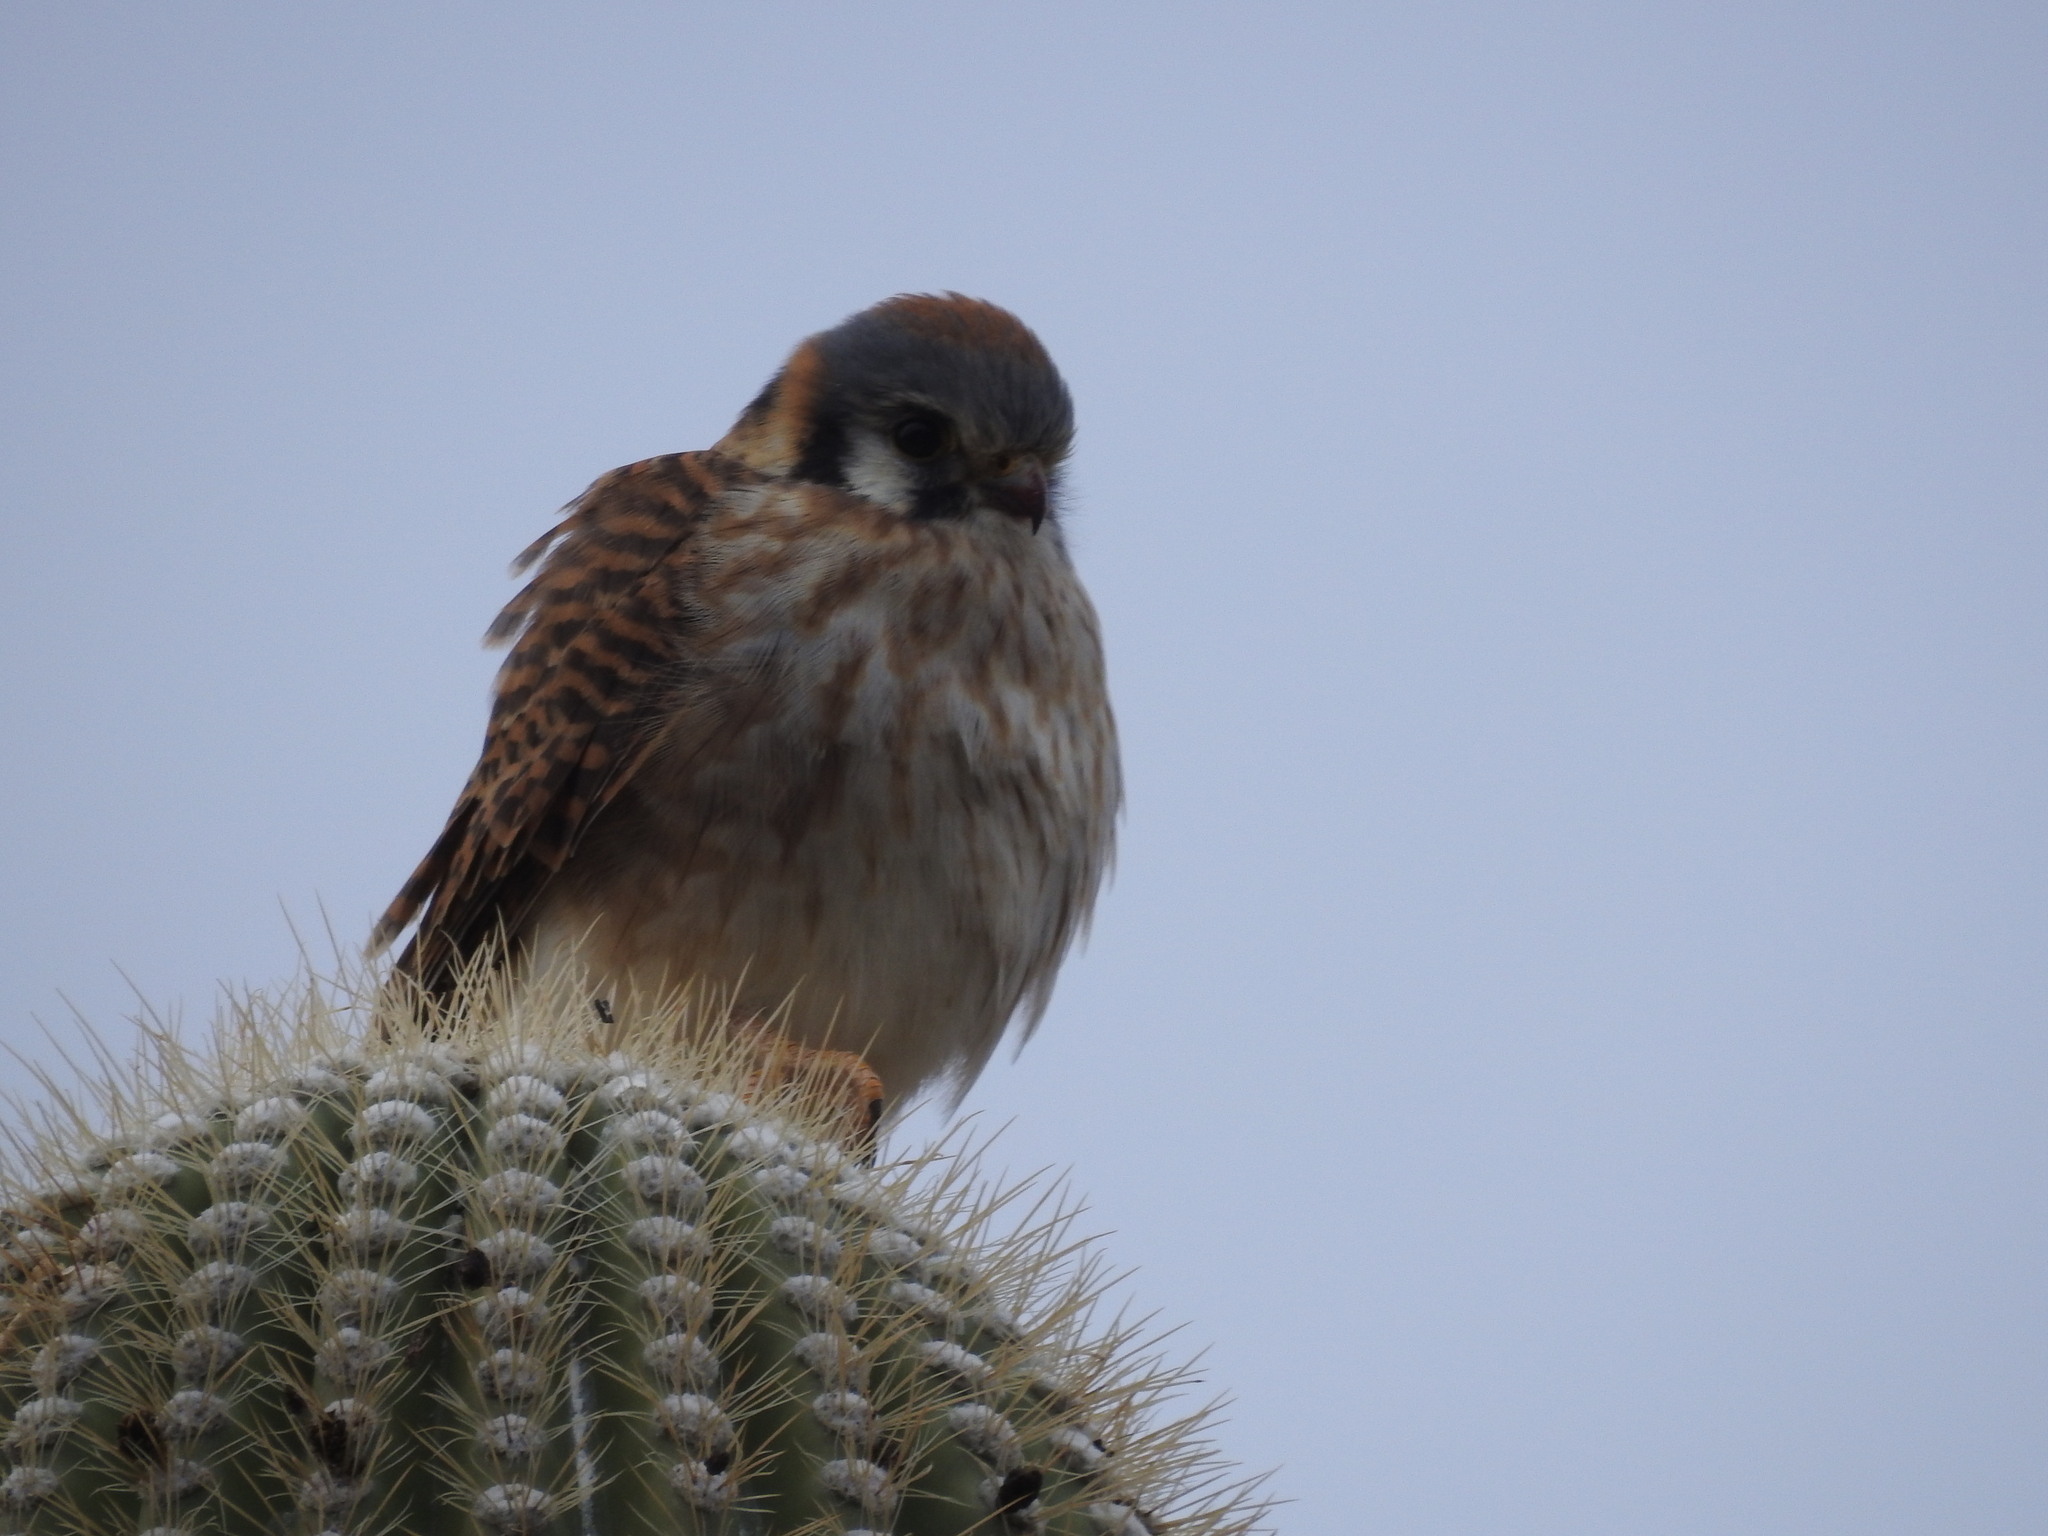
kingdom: Animalia
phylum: Chordata
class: Aves
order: Falconiformes
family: Falconidae
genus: Falco
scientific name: Falco sparverius
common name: American kestrel
